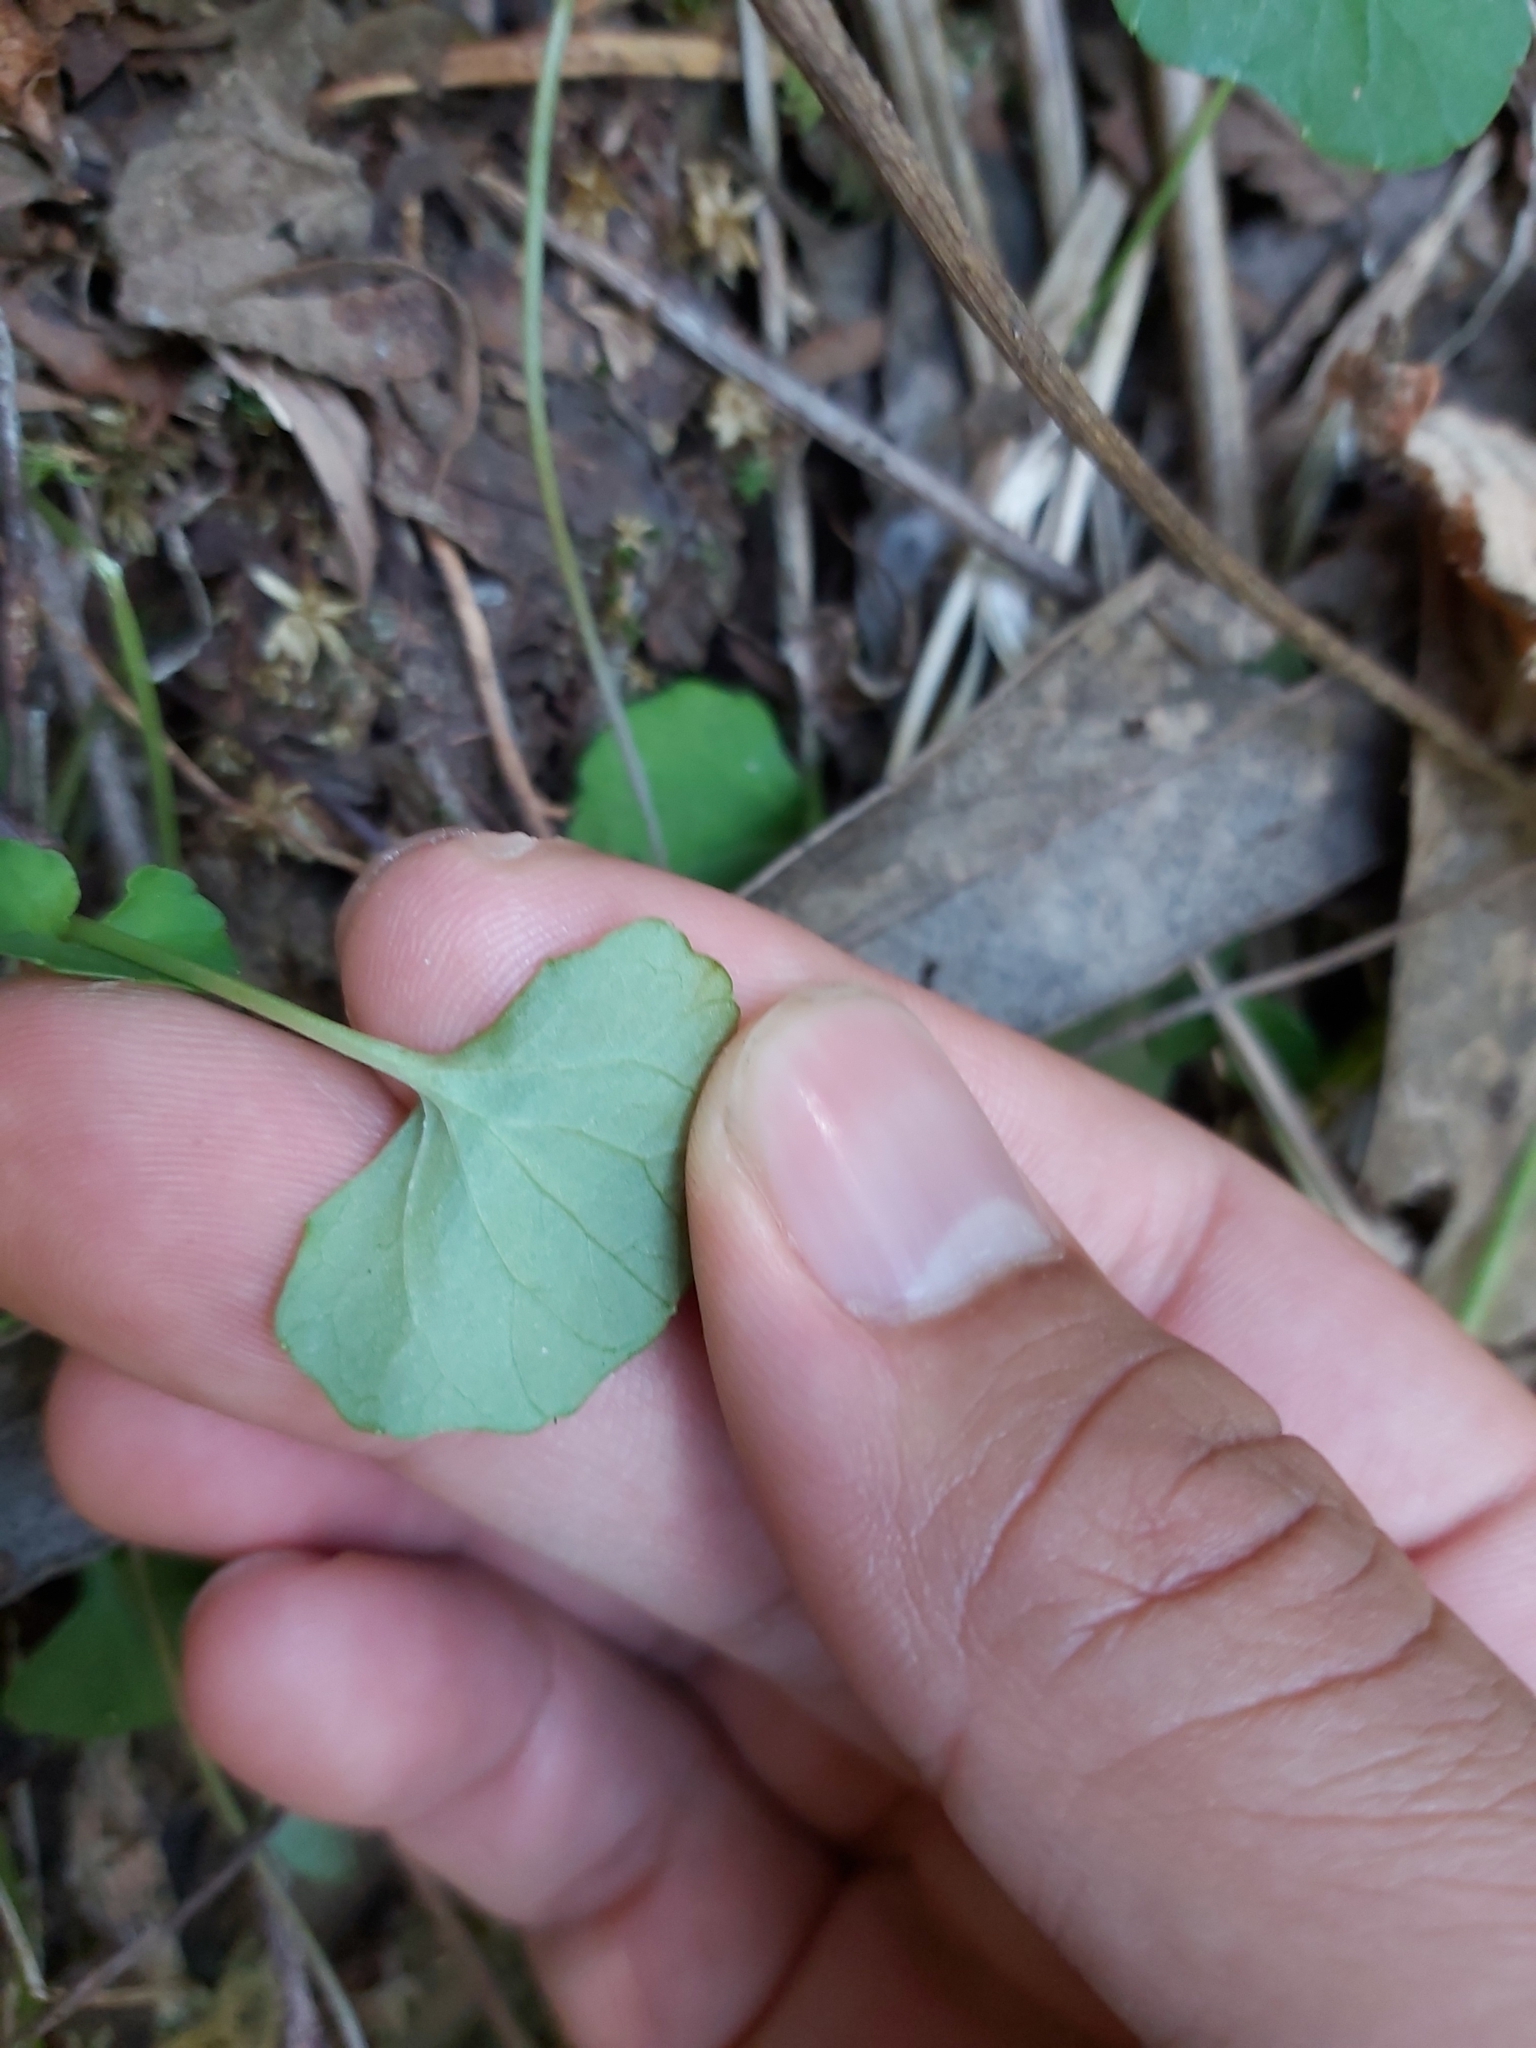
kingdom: Plantae
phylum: Tracheophyta
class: Magnoliopsida
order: Malpighiales
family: Violaceae
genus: Viola
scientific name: Viola hederacea
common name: Australian violet
